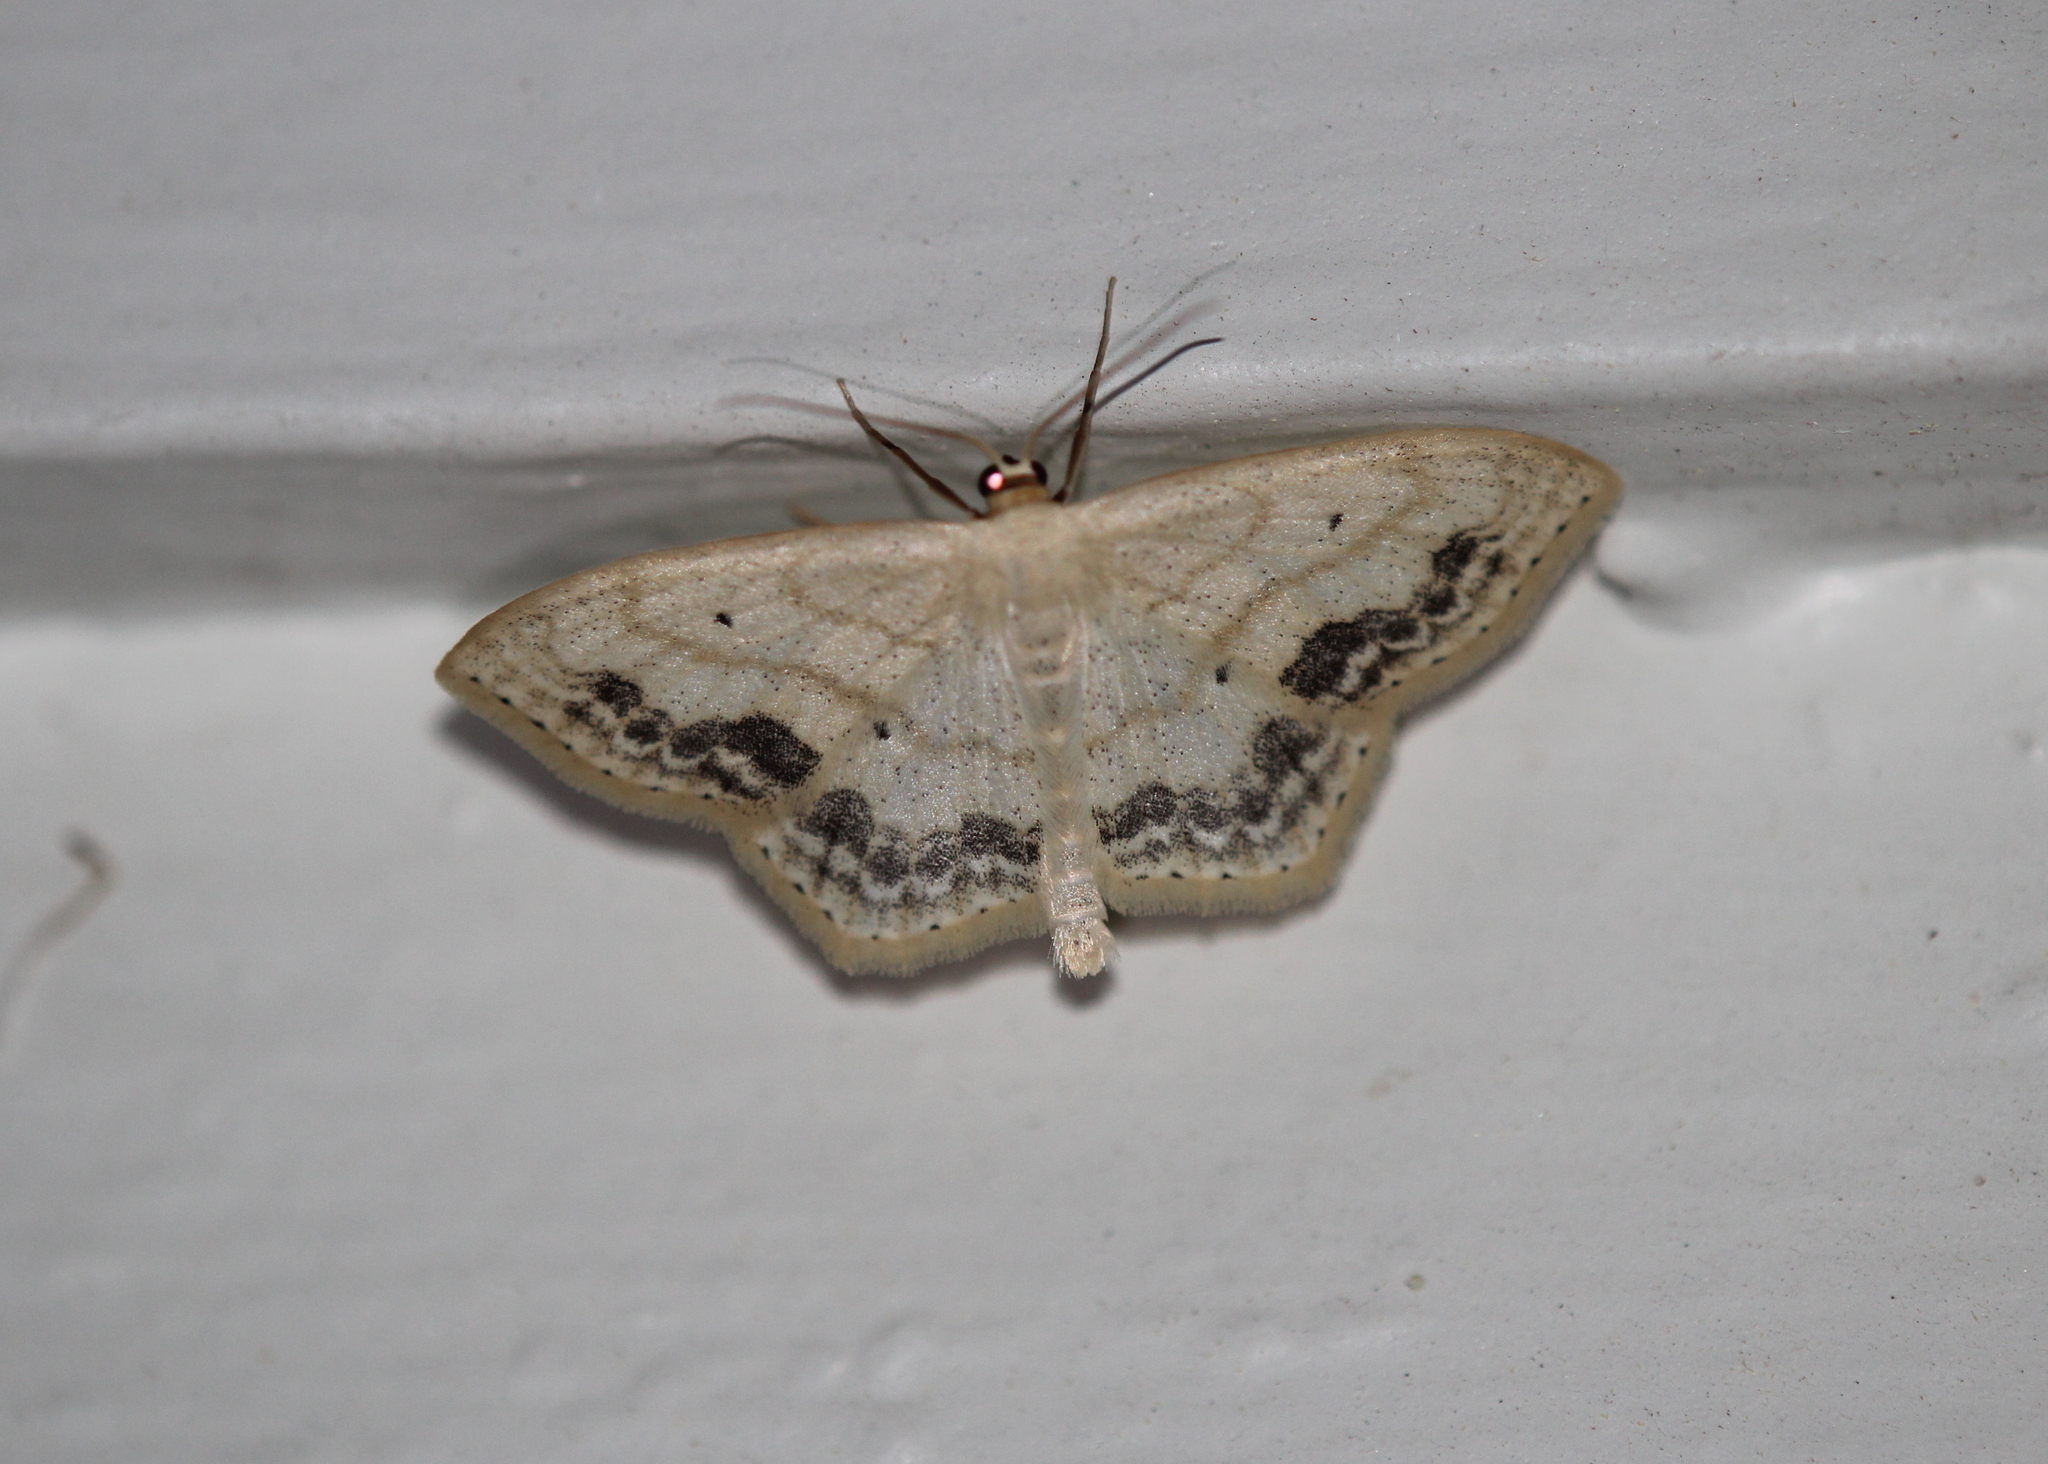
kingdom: Animalia
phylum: Arthropoda
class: Insecta
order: Lepidoptera
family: Geometridae
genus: Scopula
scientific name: Scopula limboundata
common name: Large lace border
